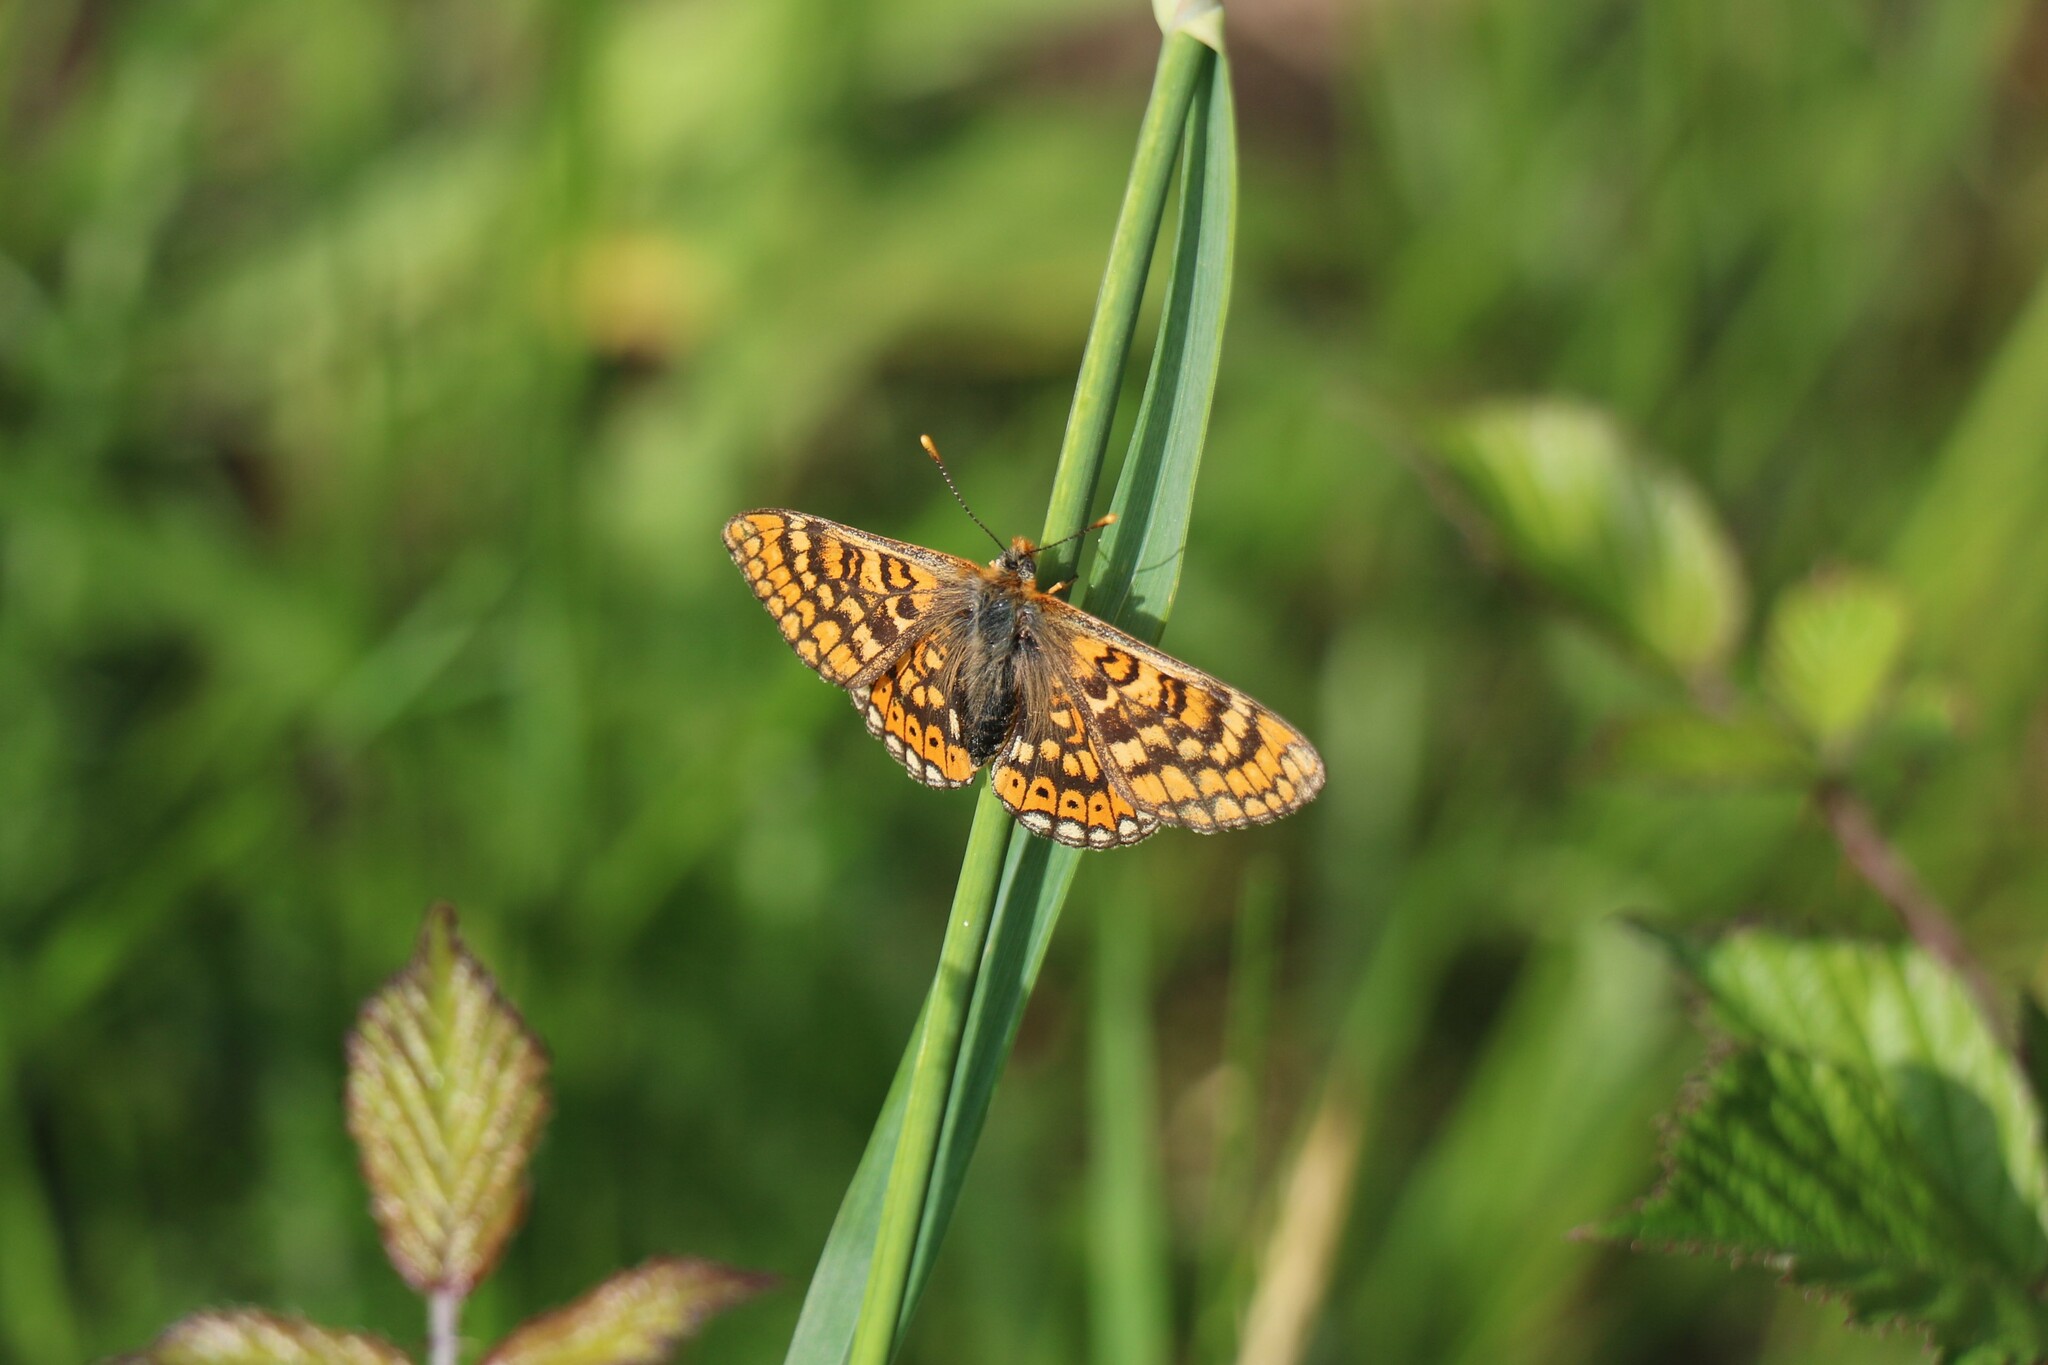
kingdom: Animalia
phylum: Arthropoda
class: Insecta
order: Lepidoptera
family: Nymphalidae
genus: Euphydryas
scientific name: Euphydryas aurinia
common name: Marsh fritillary
